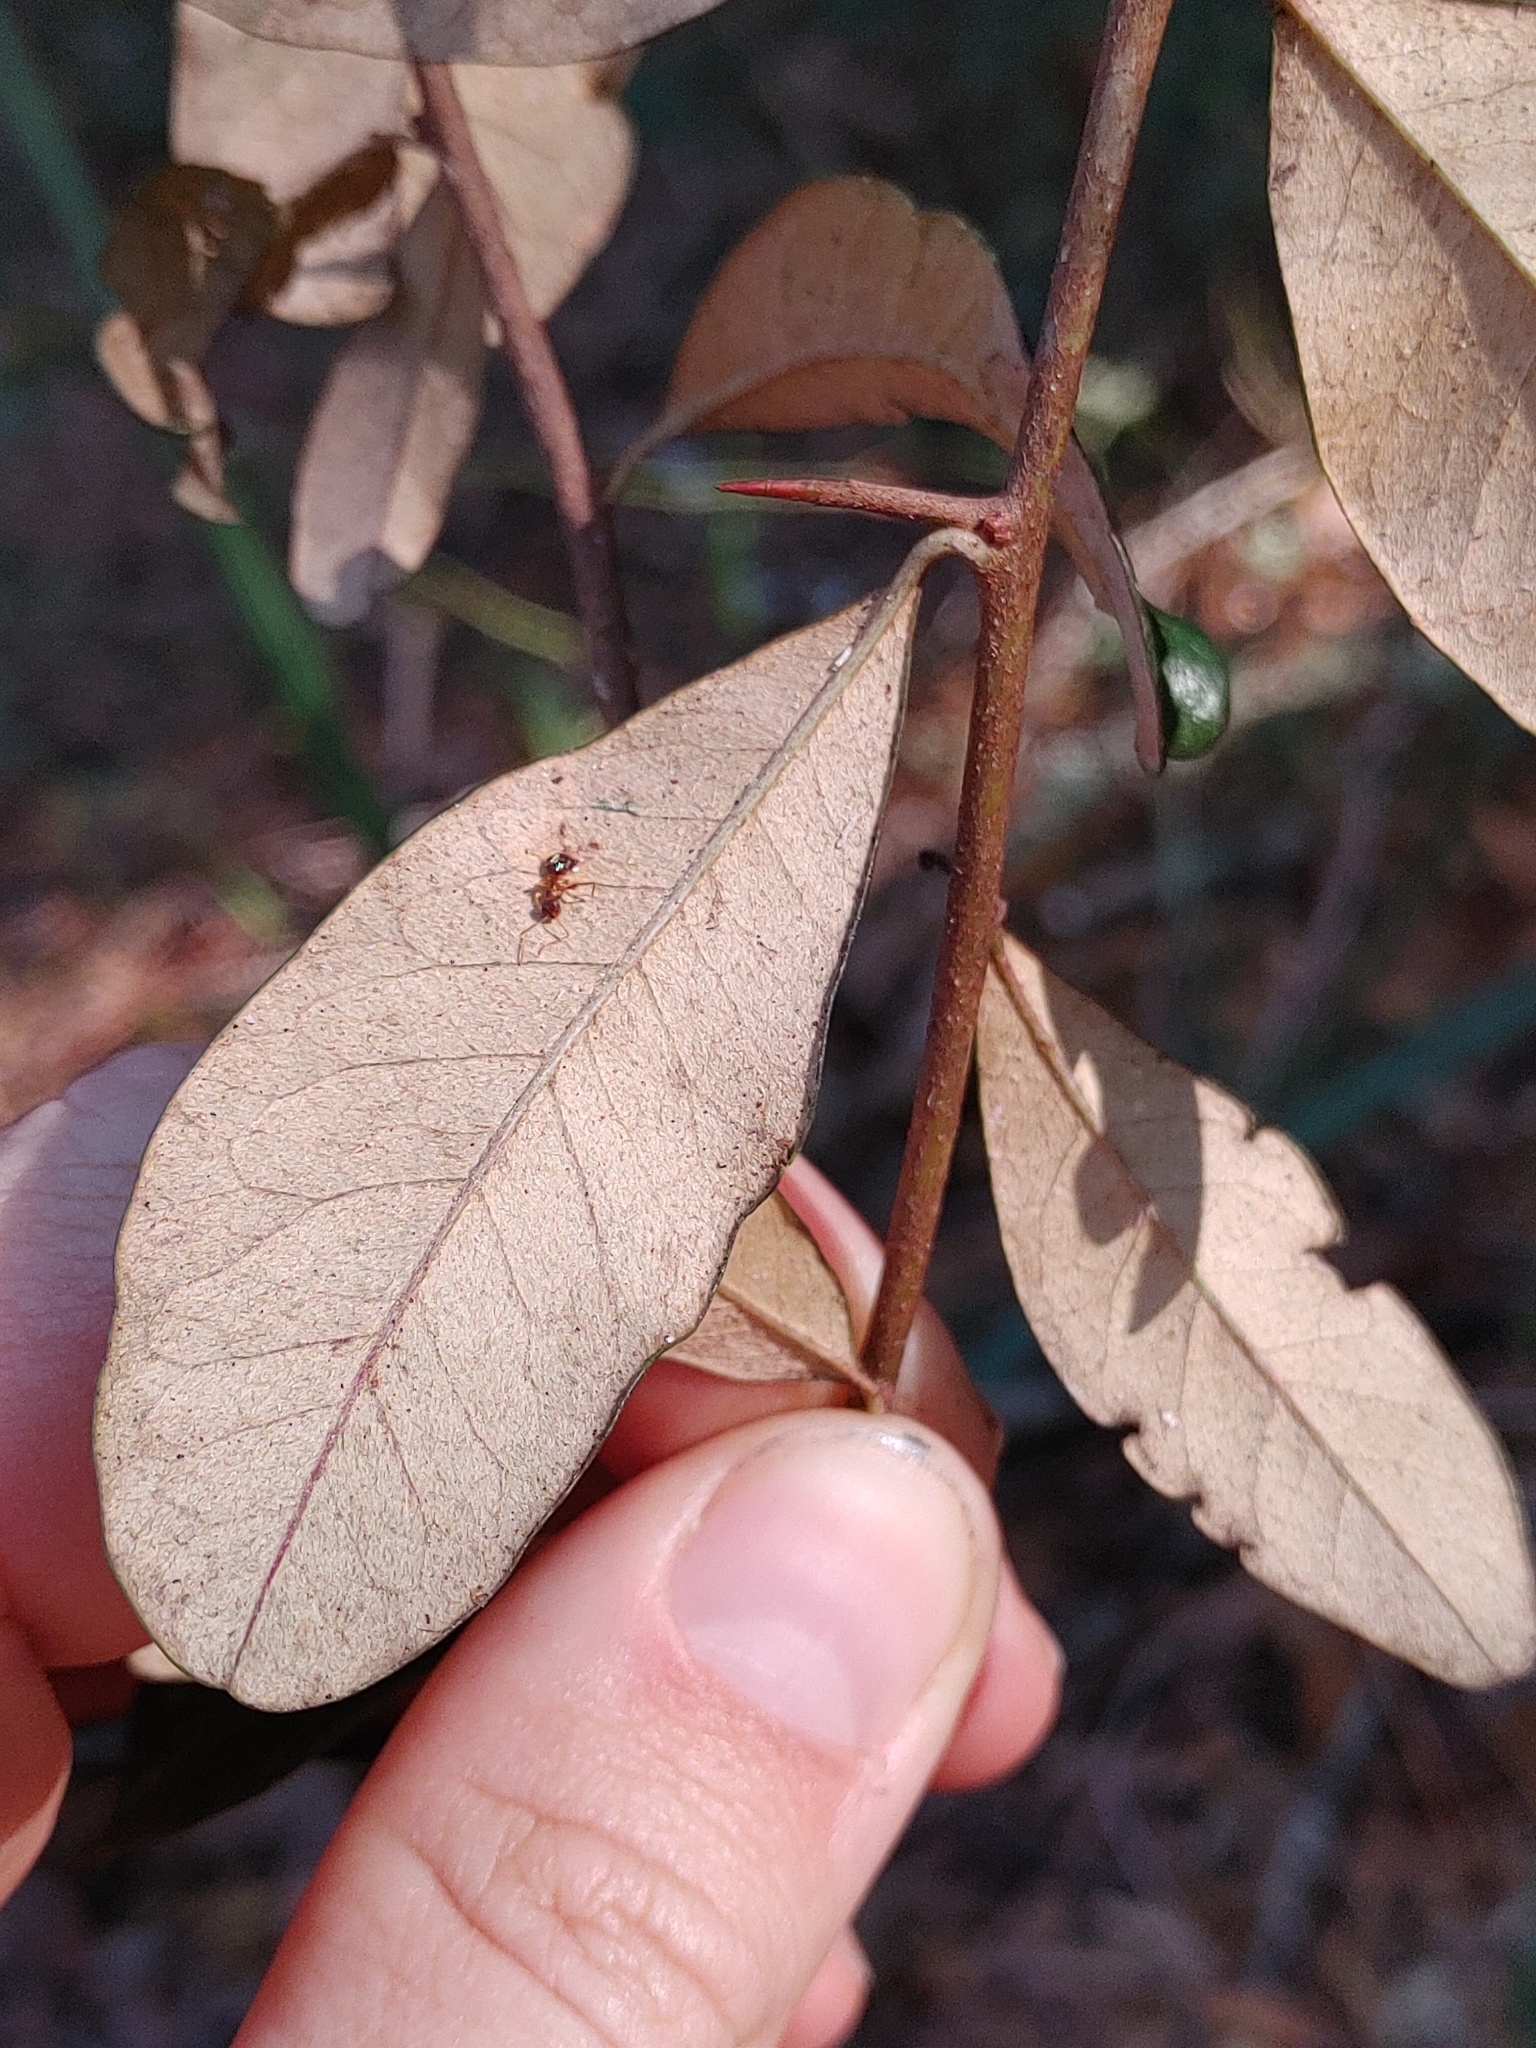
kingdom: Plantae
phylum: Tracheophyta
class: Magnoliopsida
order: Ericales
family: Sapotaceae
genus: Sideroxylon
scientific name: Sideroxylon tenax
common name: Tough-buckthorn
